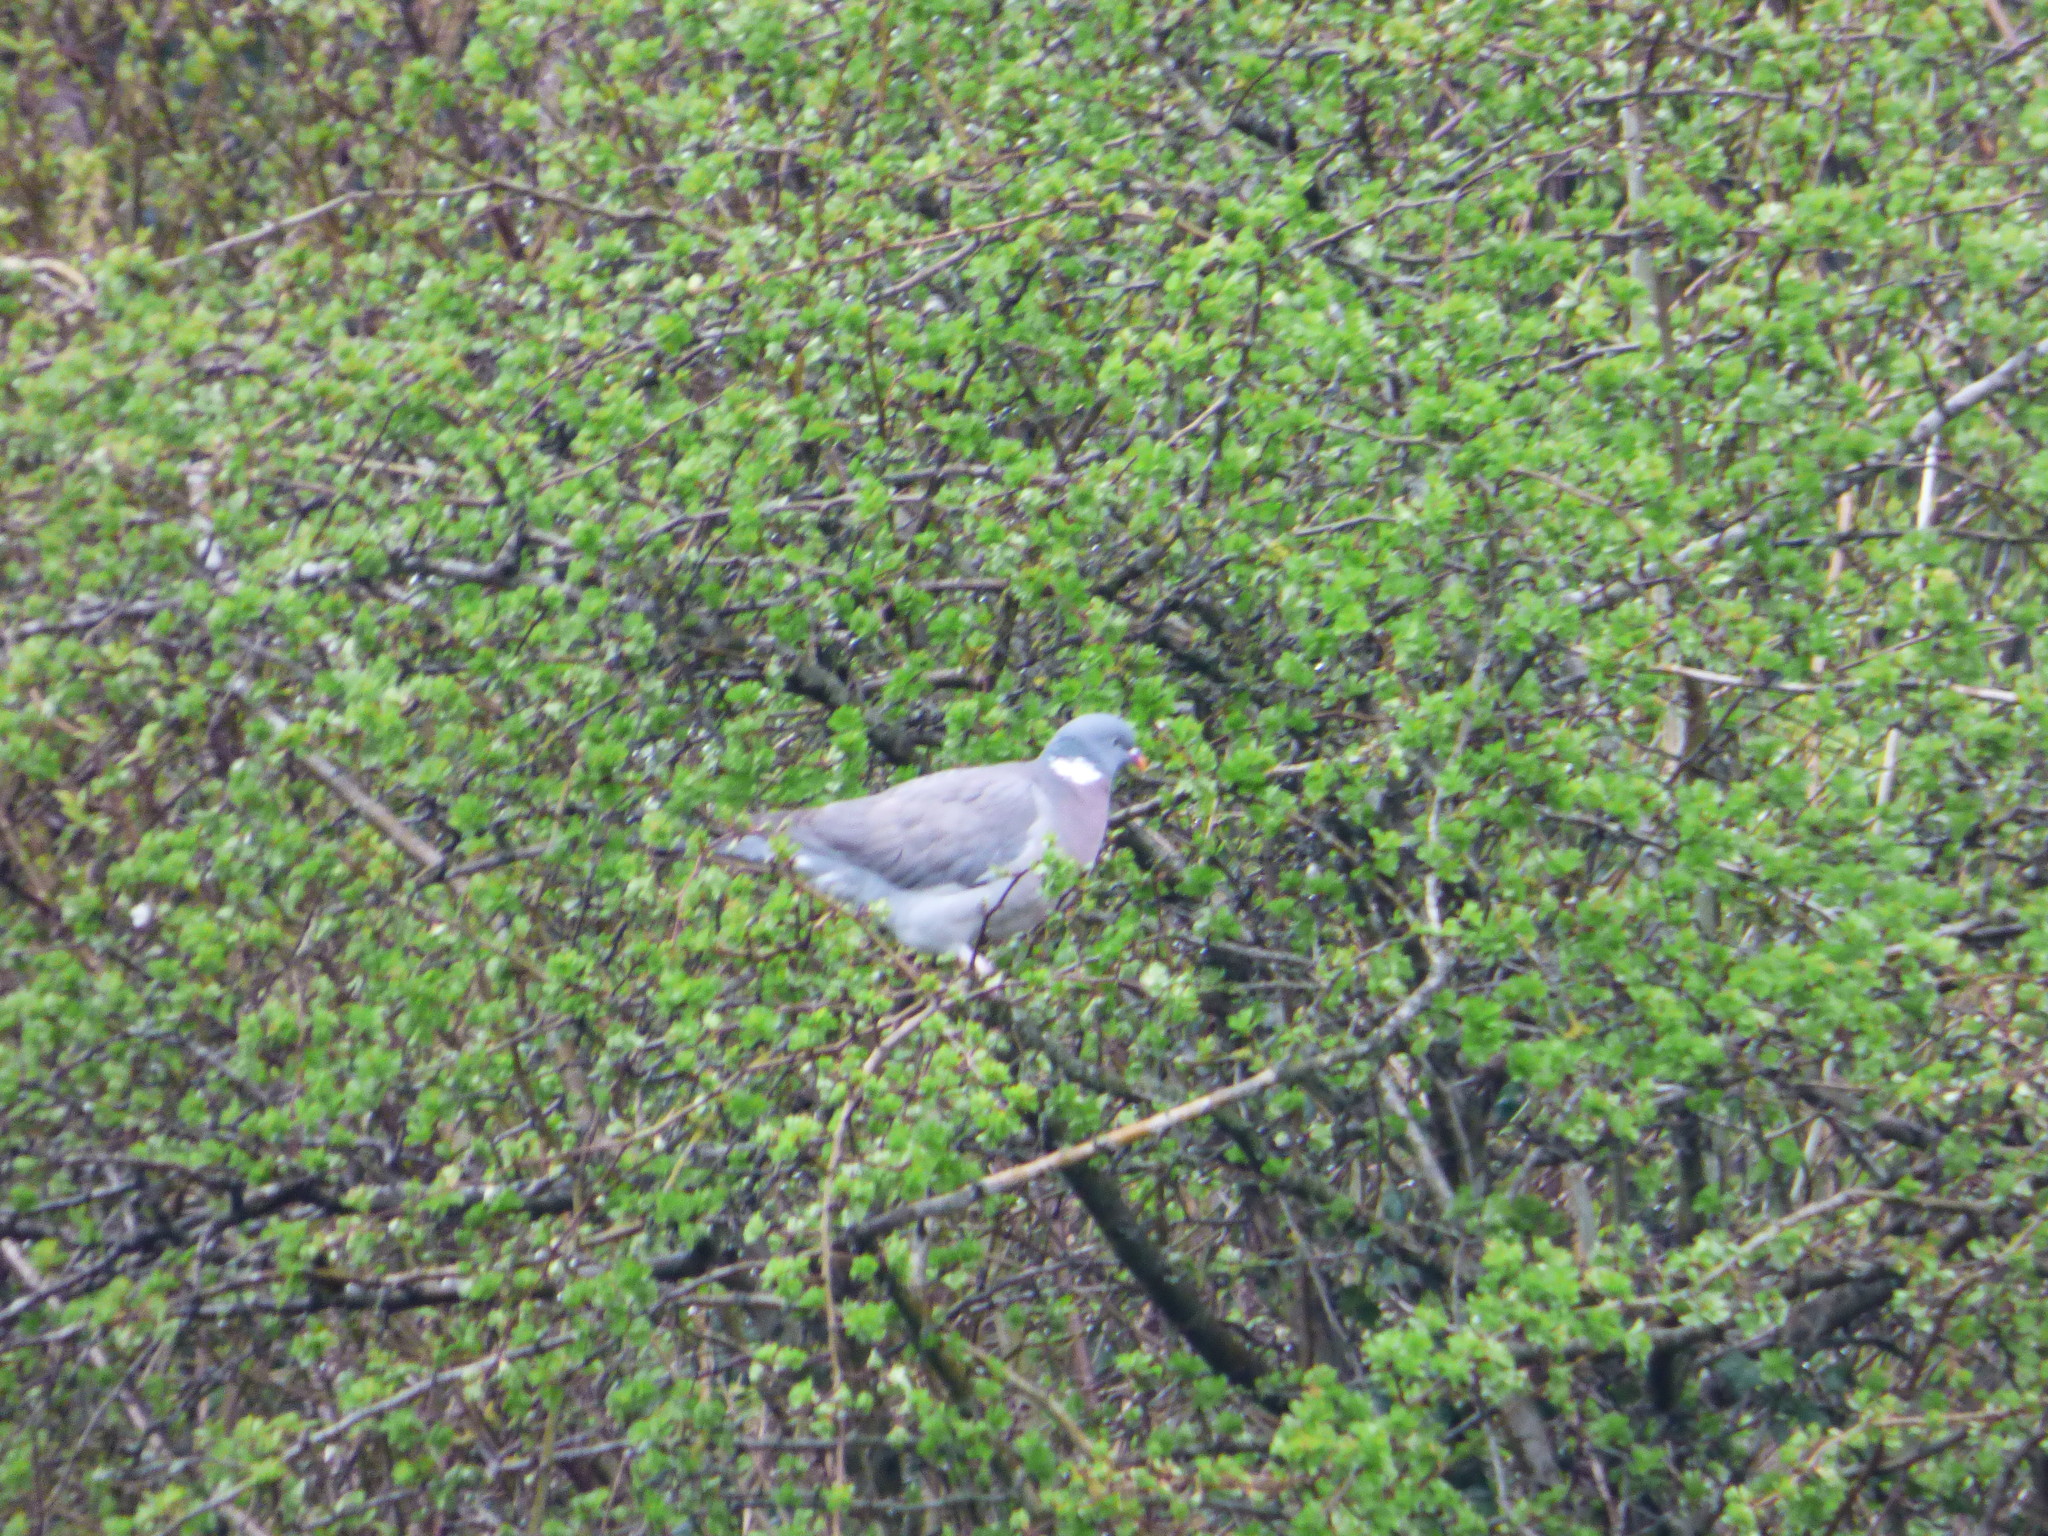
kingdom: Animalia
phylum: Chordata
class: Aves
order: Columbiformes
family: Columbidae
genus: Columba
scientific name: Columba palumbus
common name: Common wood pigeon
